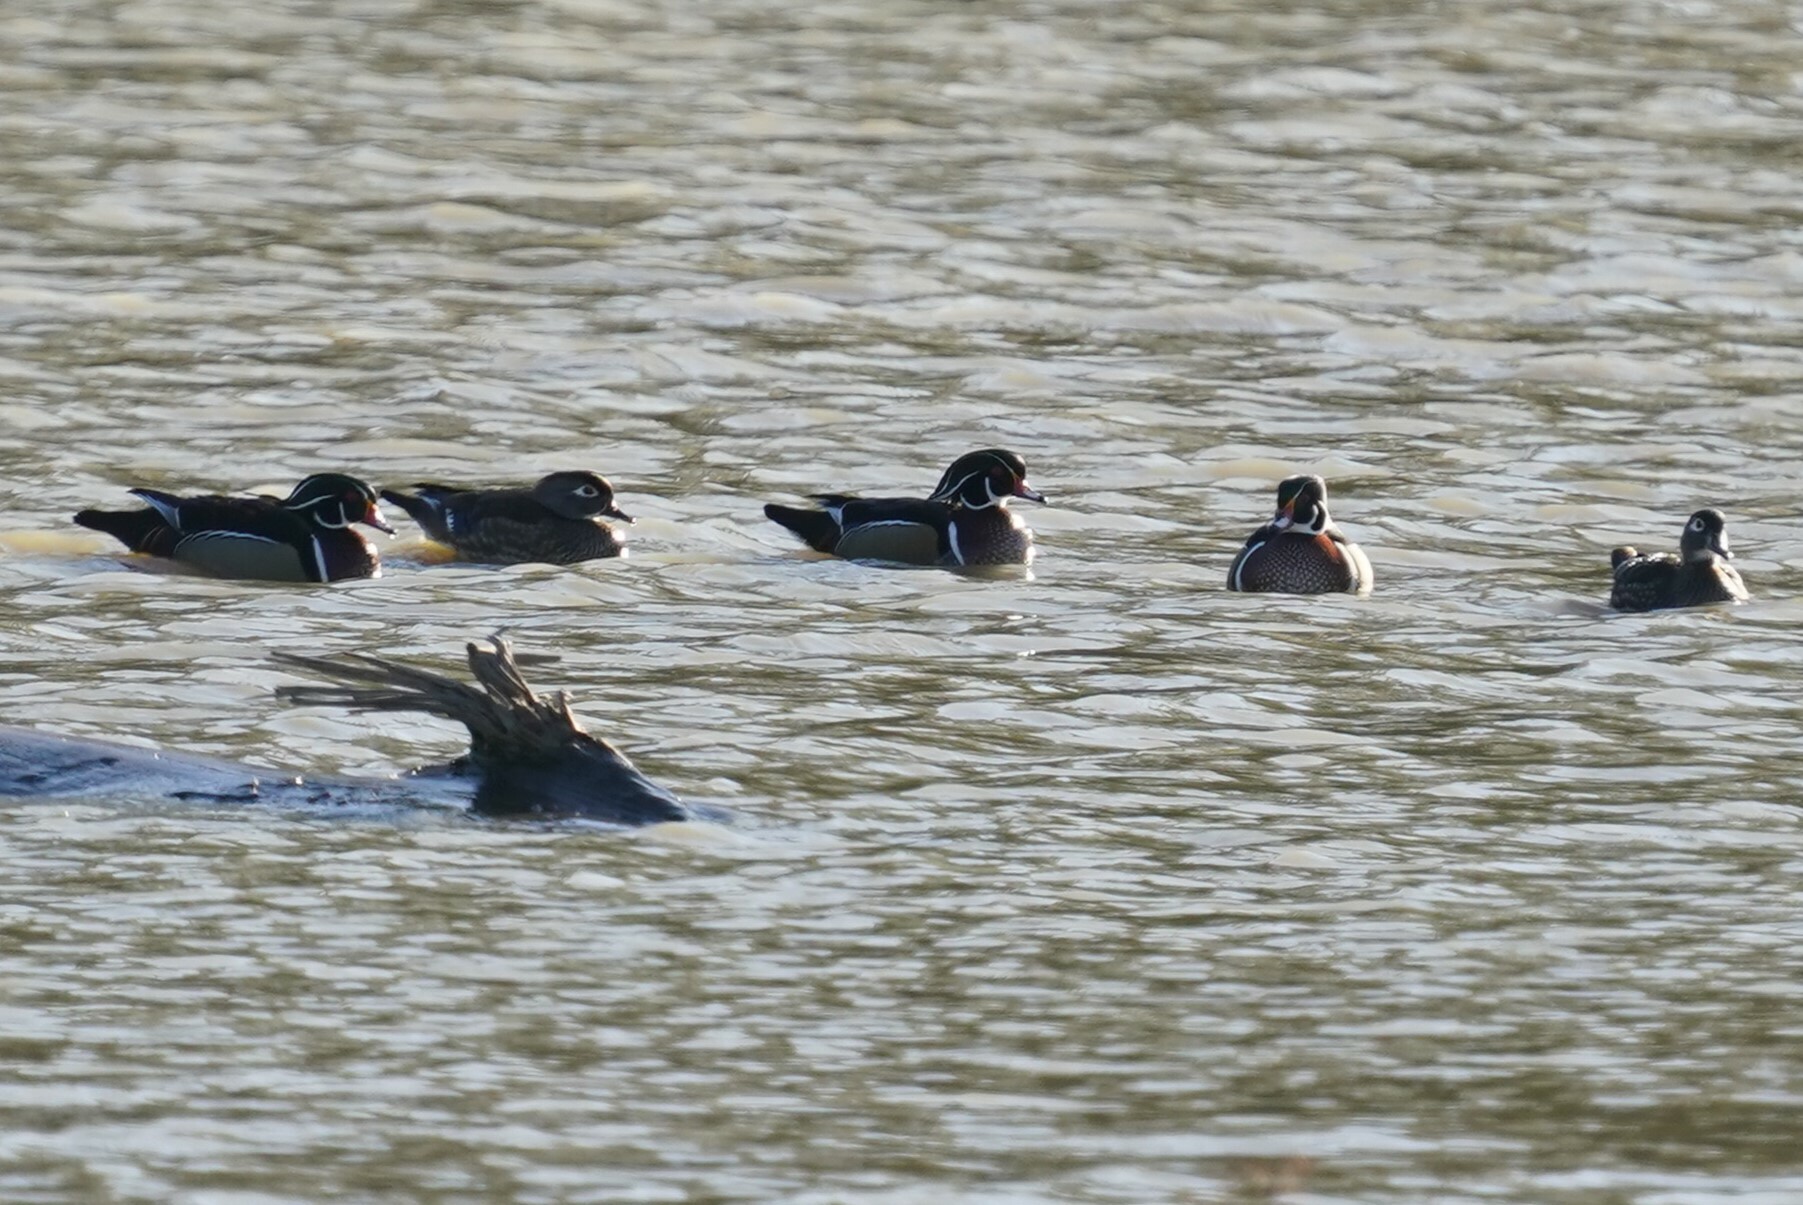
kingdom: Animalia
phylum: Chordata
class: Aves
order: Anseriformes
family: Anatidae
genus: Aix
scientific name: Aix sponsa
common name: Wood duck
